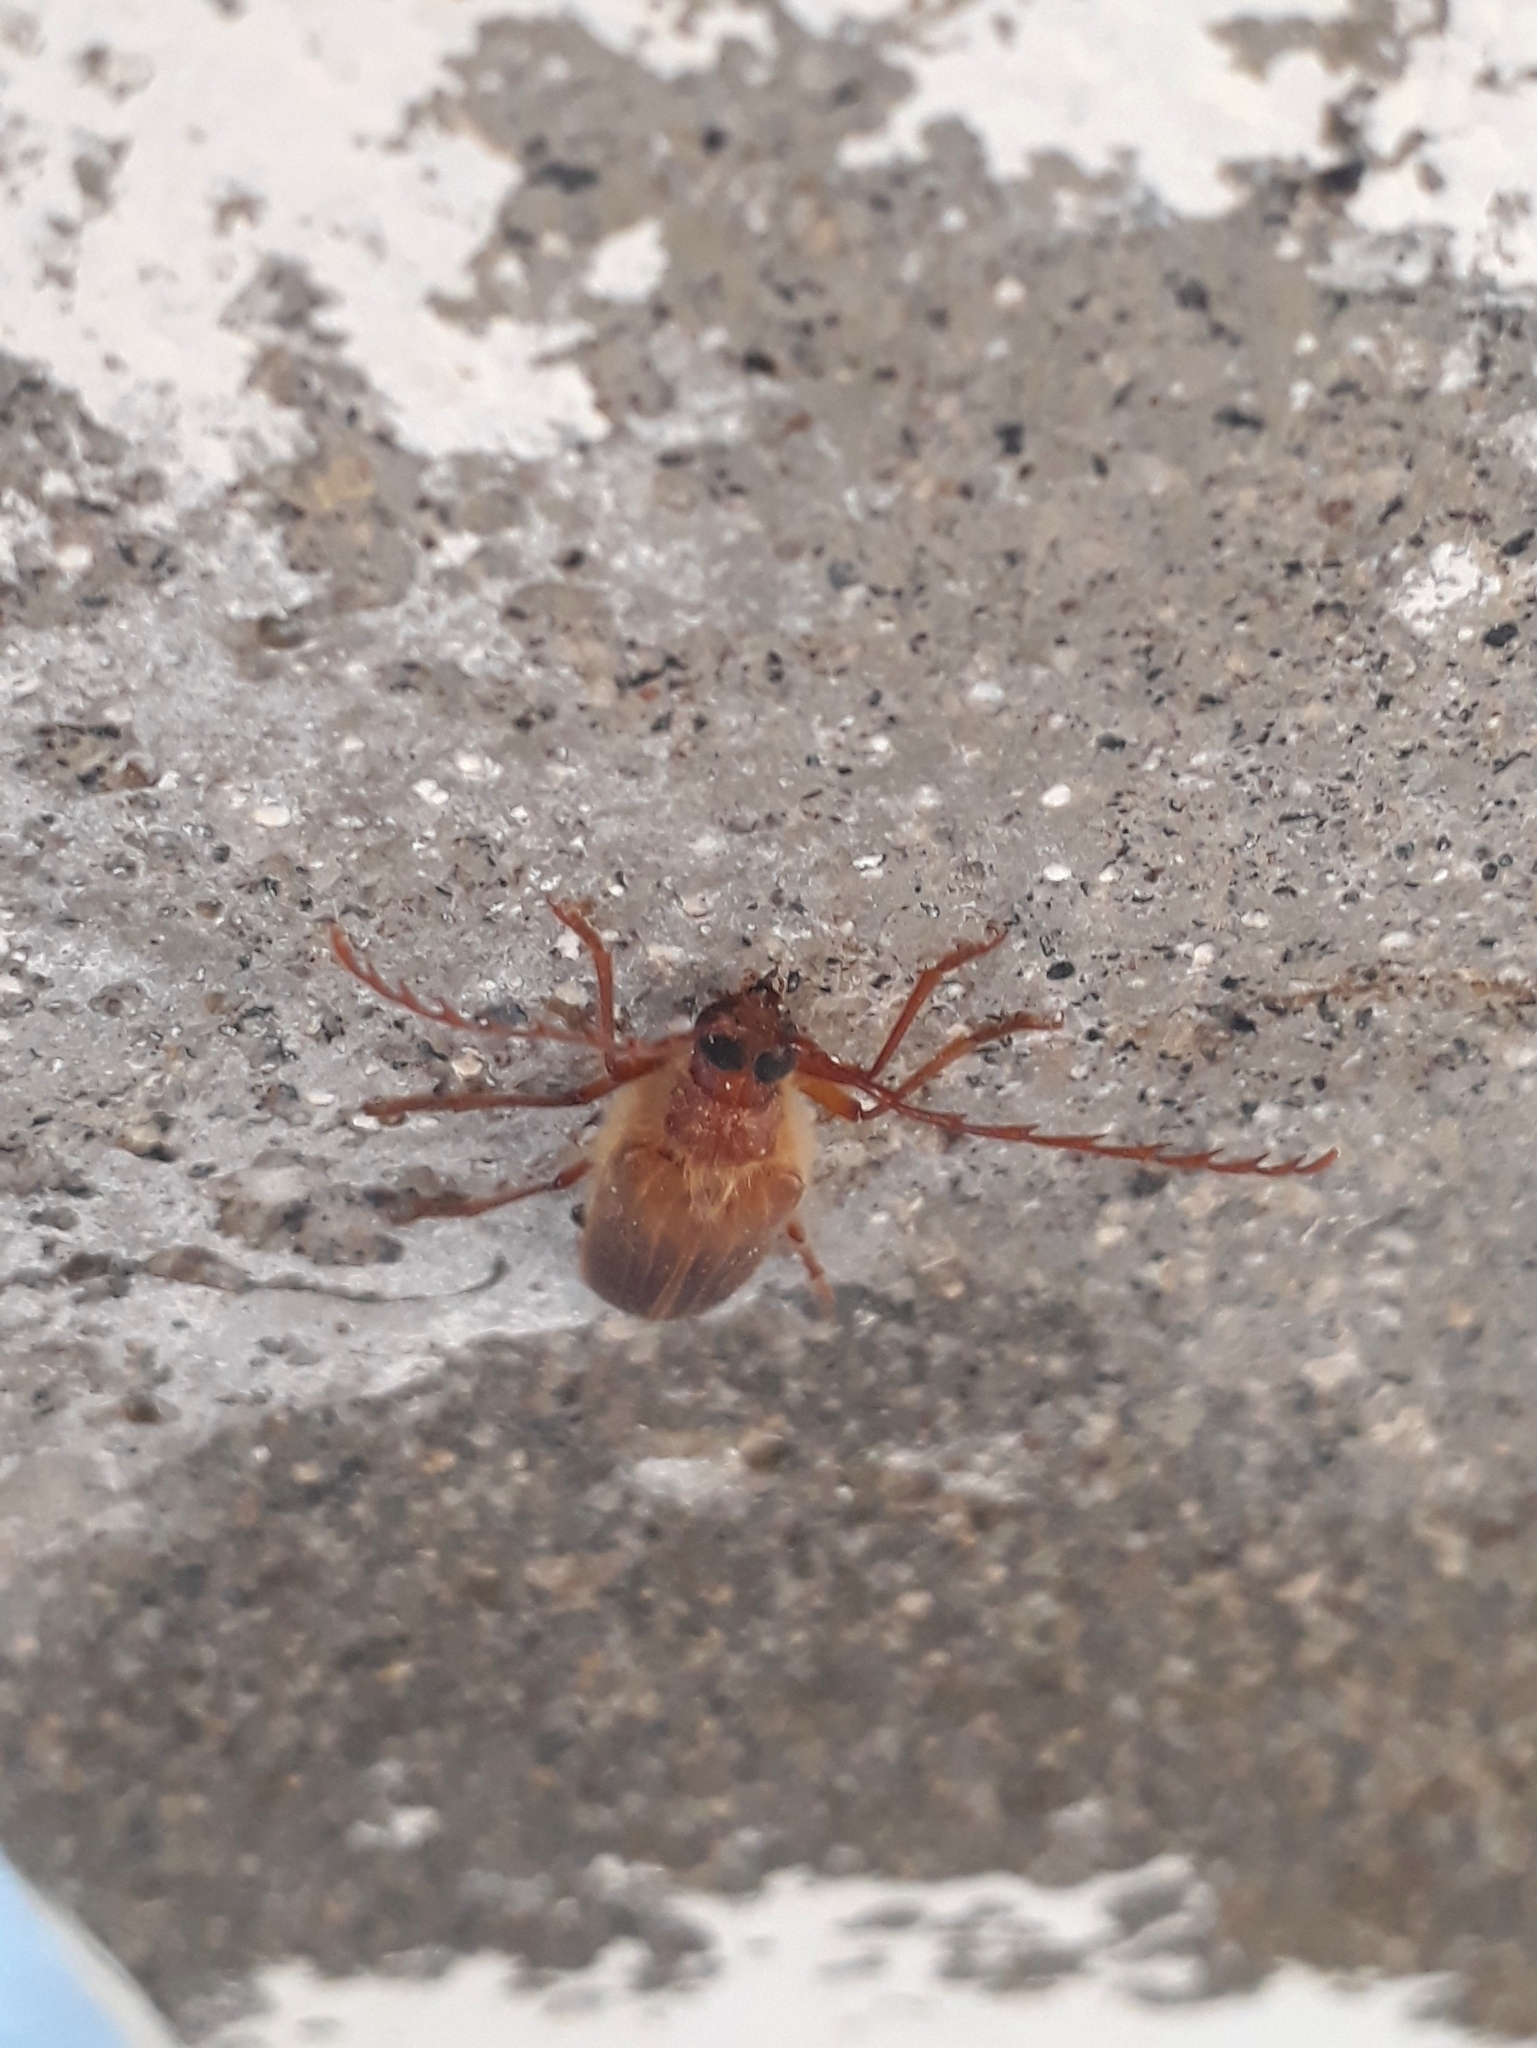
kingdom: Animalia
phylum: Arthropoda
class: Insecta
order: Coleoptera
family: Cerambycidae
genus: Microplophorus
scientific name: Microplophorus penai
